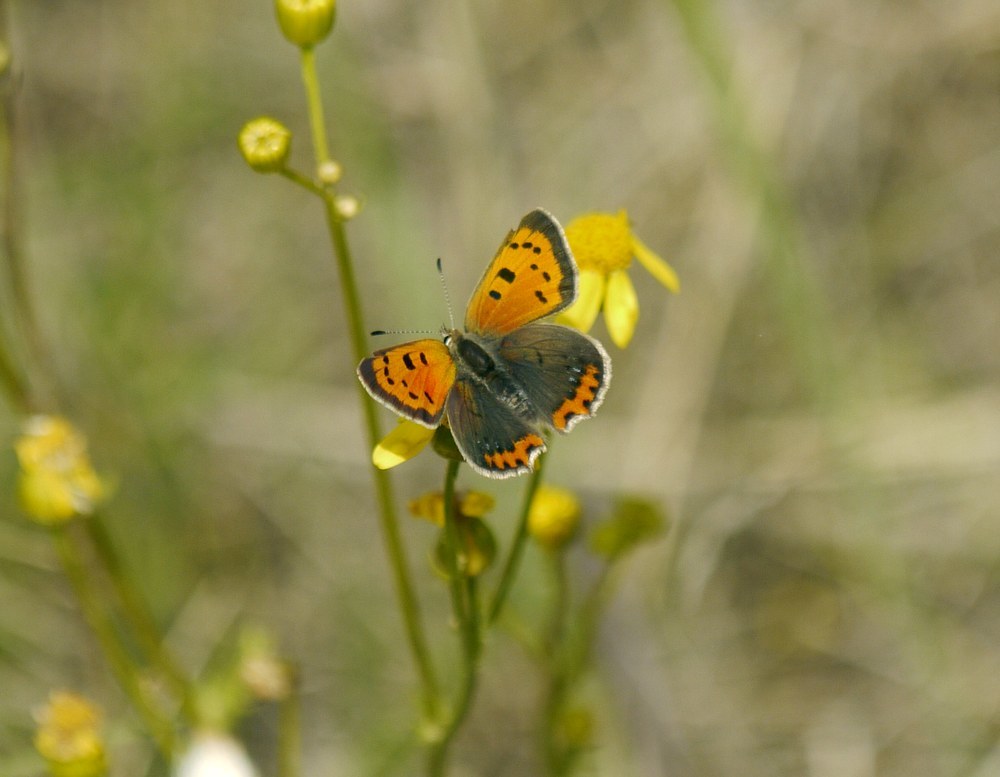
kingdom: Animalia
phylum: Arthropoda
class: Insecta
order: Lepidoptera
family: Lycaenidae
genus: Lycaena
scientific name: Lycaena phlaeas
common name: Small copper
